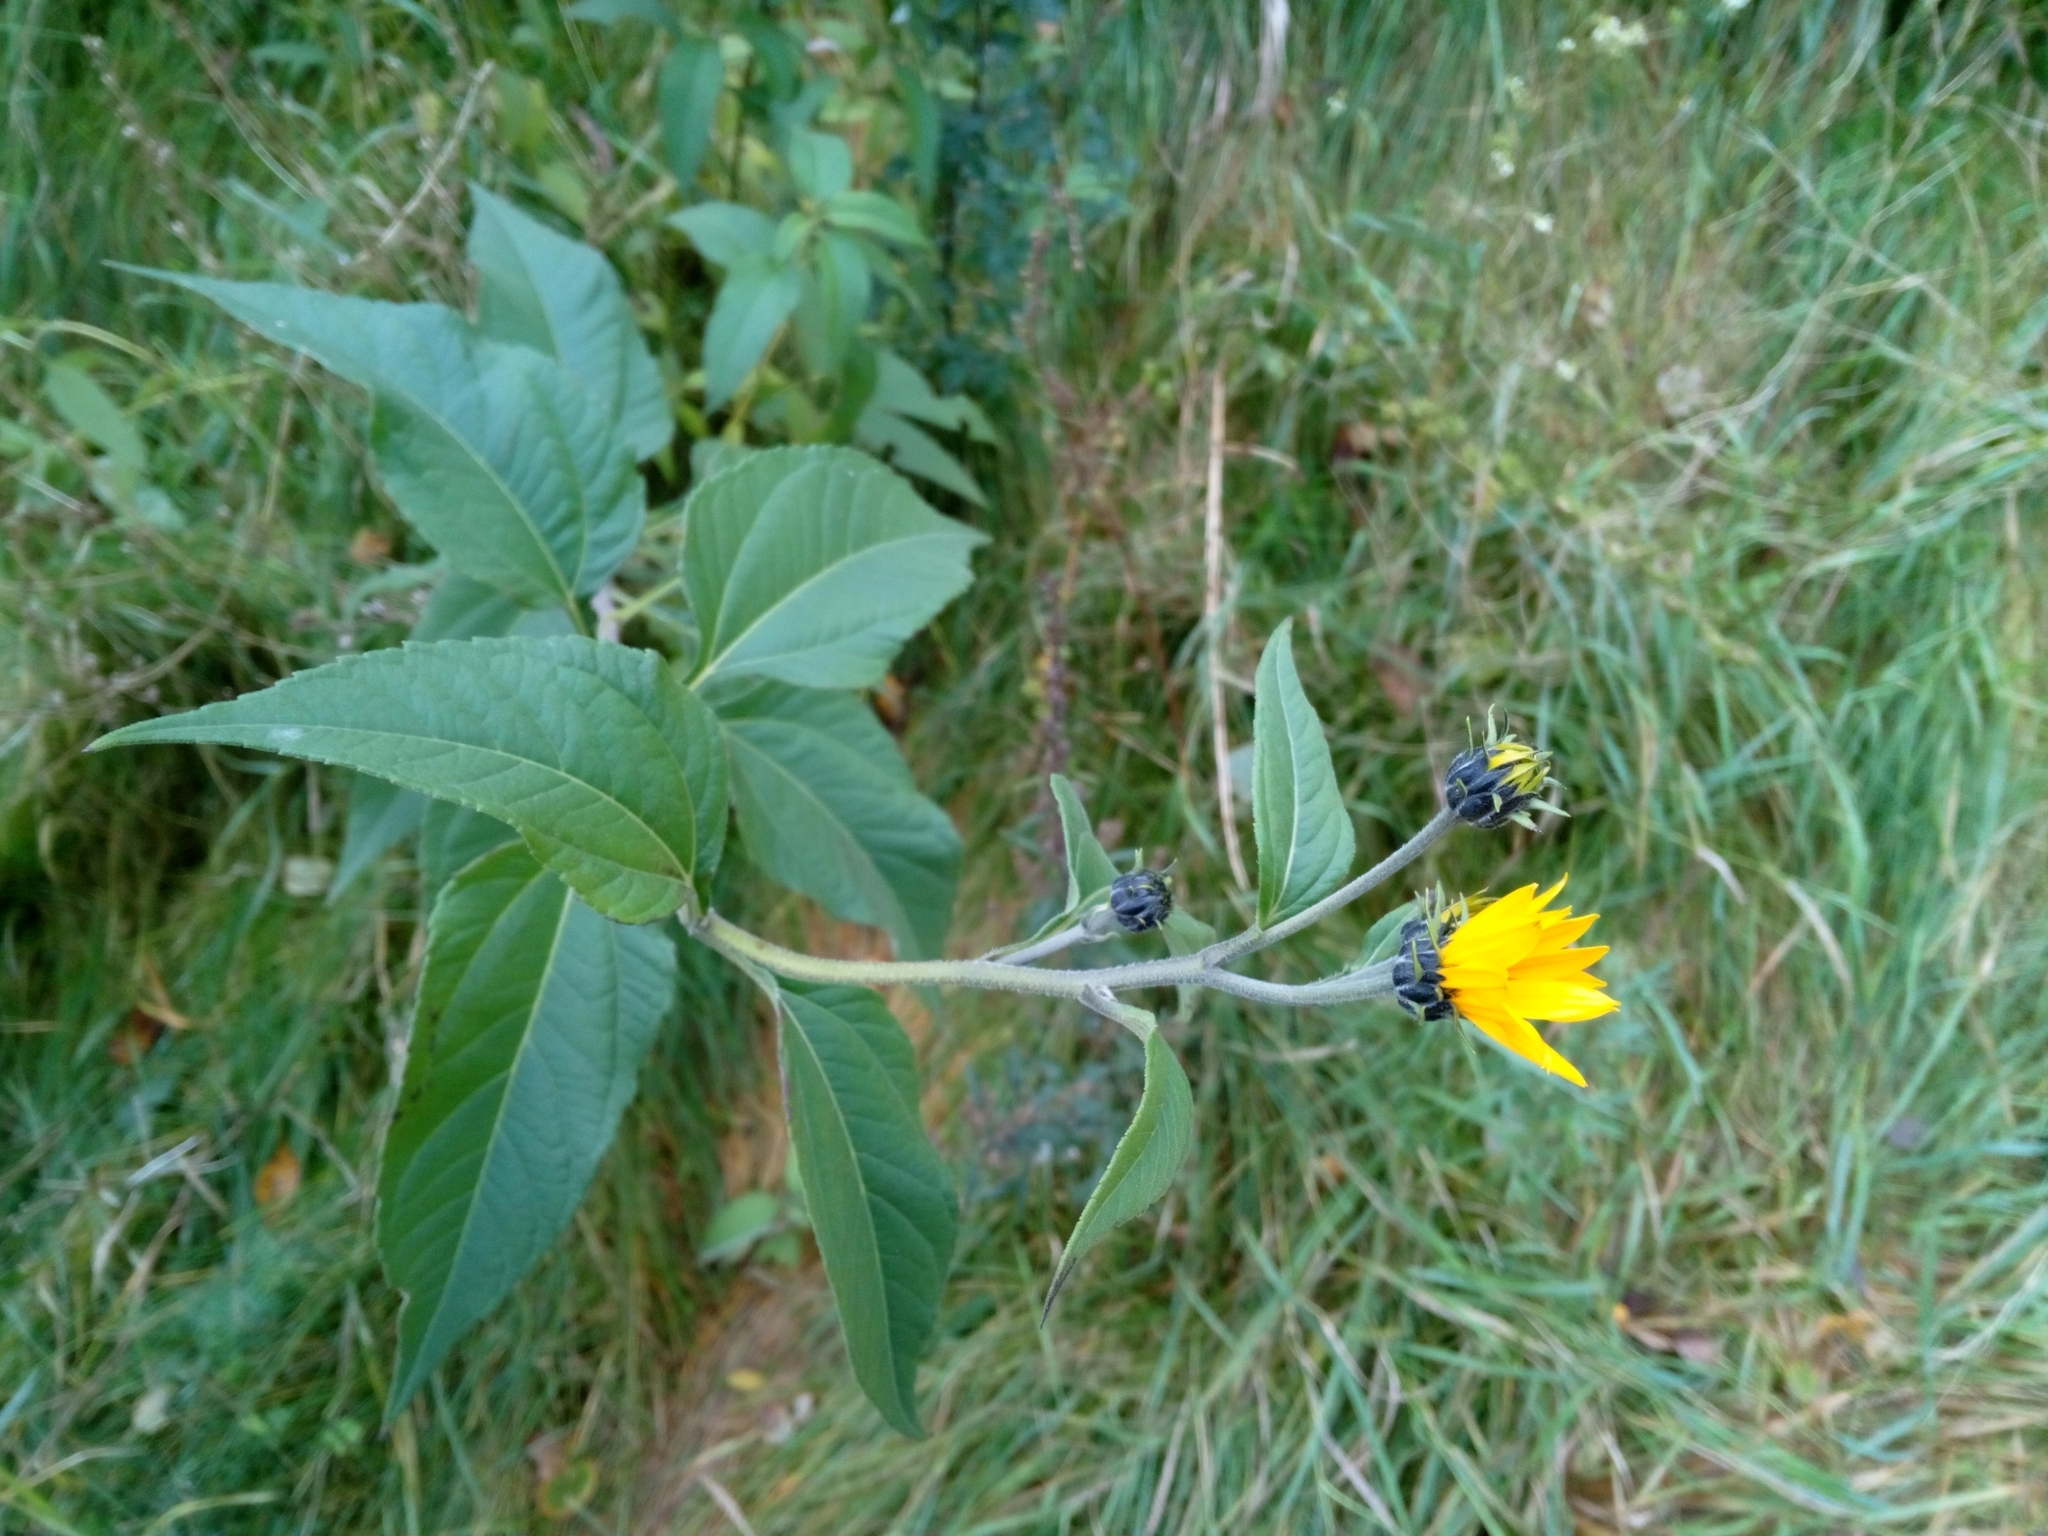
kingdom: Plantae
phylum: Tracheophyta
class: Magnoliopsida
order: Asterales
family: Asteraceae
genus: Helianthus
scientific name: Helianthus tuberosus
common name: Jerusalem artichoke
